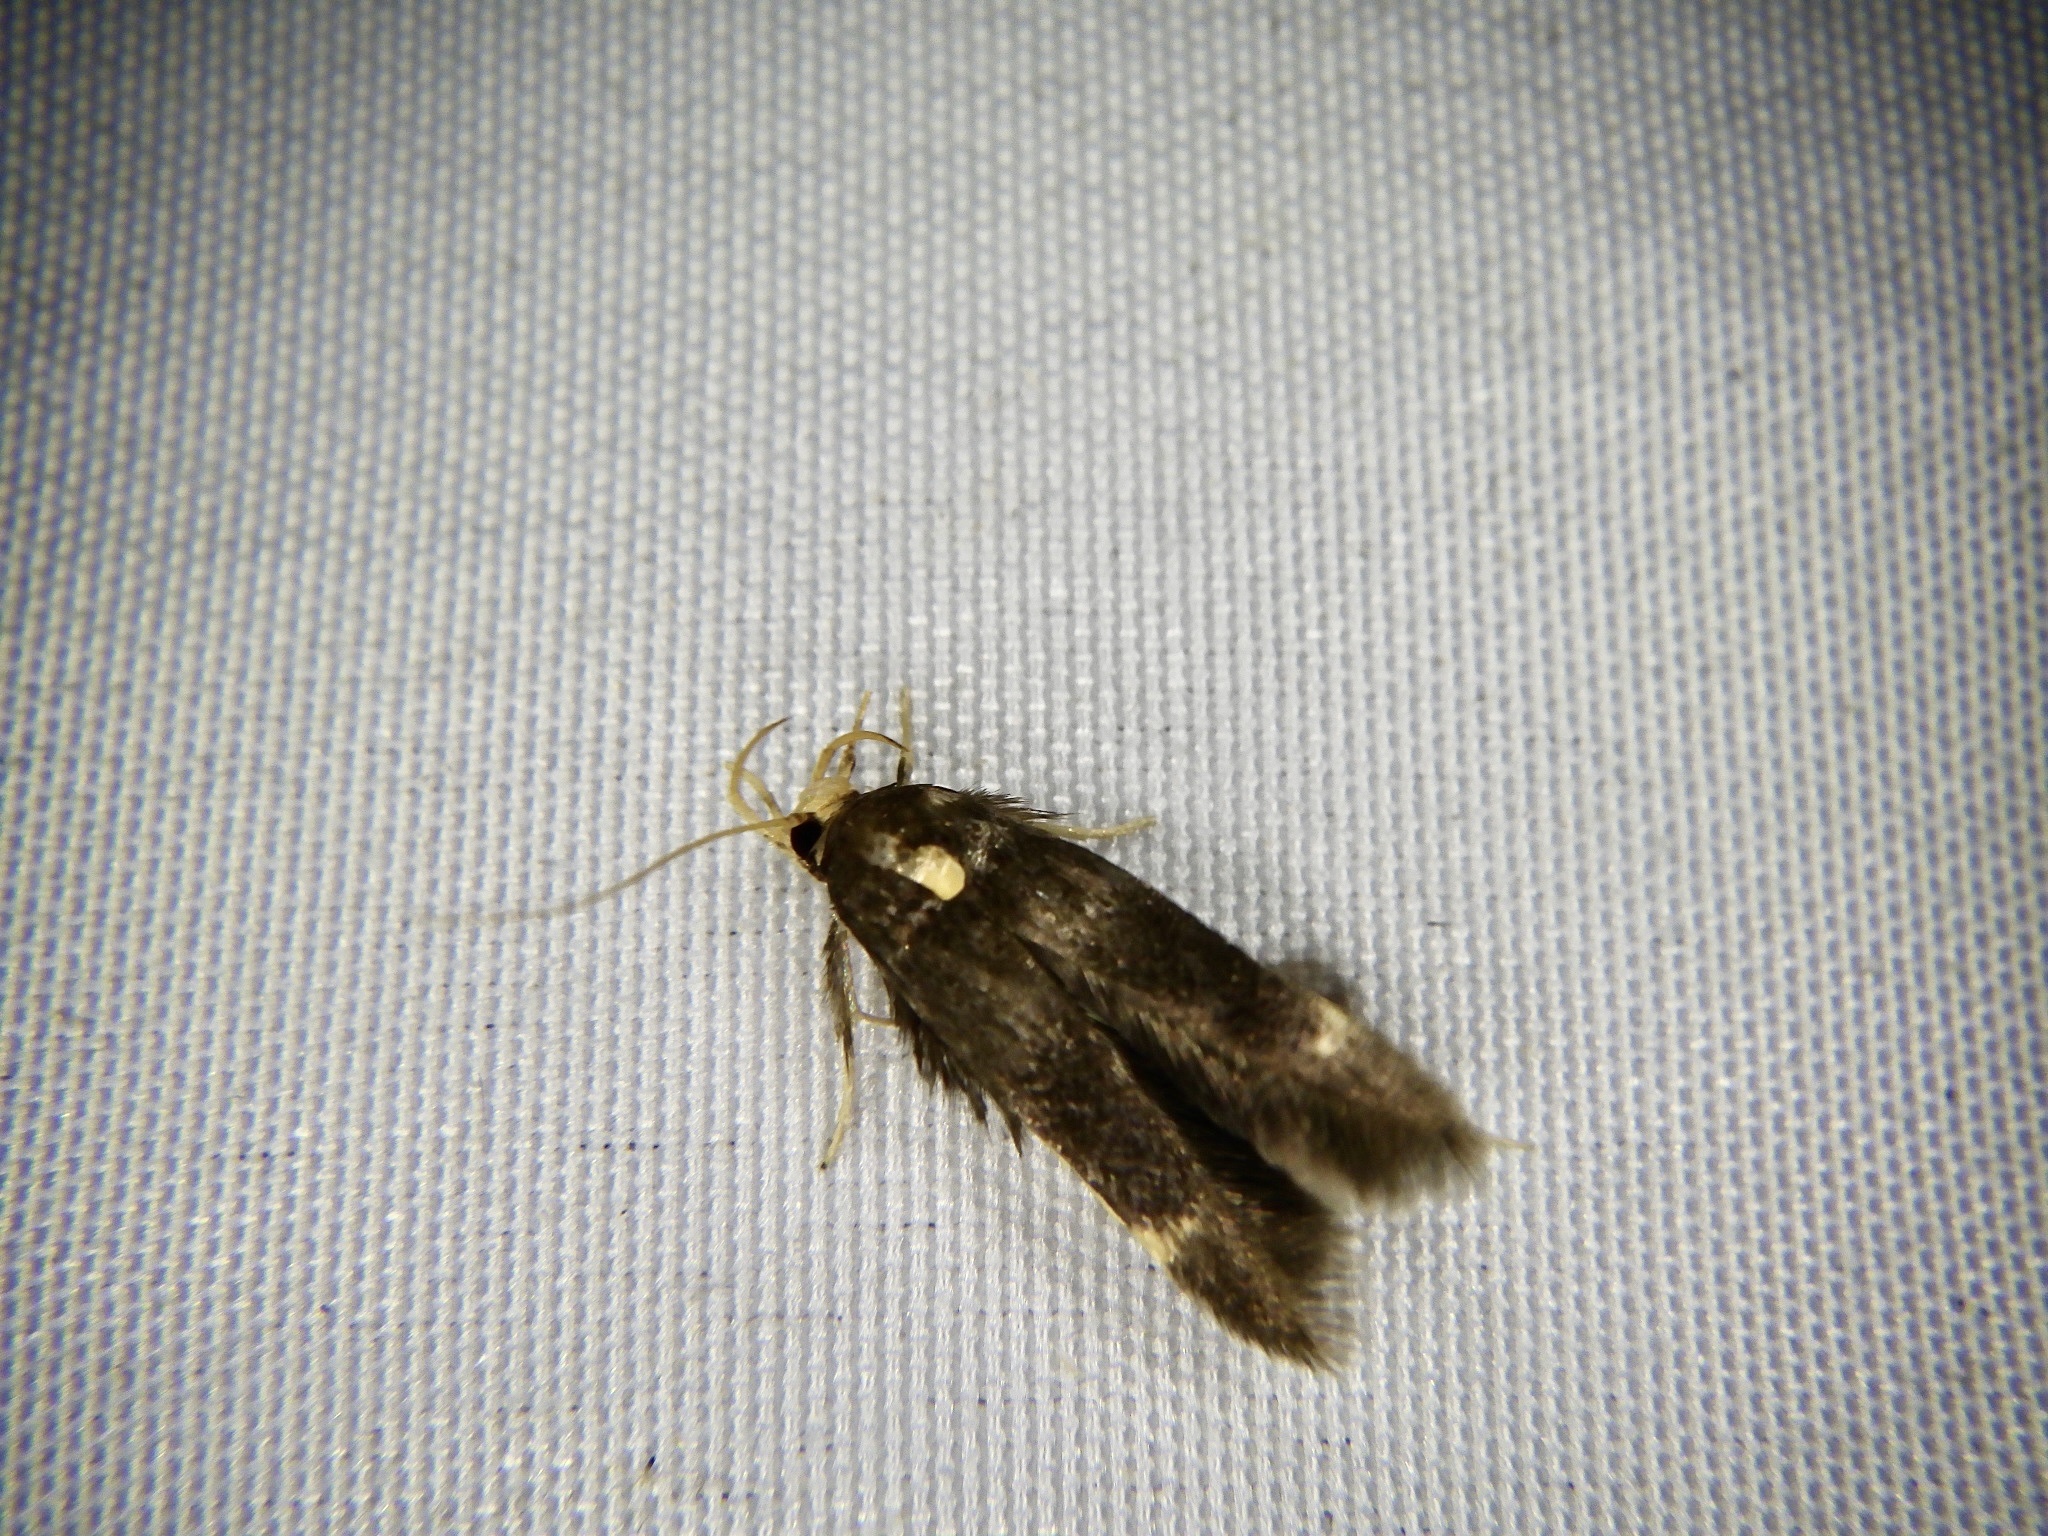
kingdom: Animalia
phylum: Arthropoda
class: Insecta
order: Lepidoptera
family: Stathmopodidae
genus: Stathmopoda
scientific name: Stathmopoda masinissa
